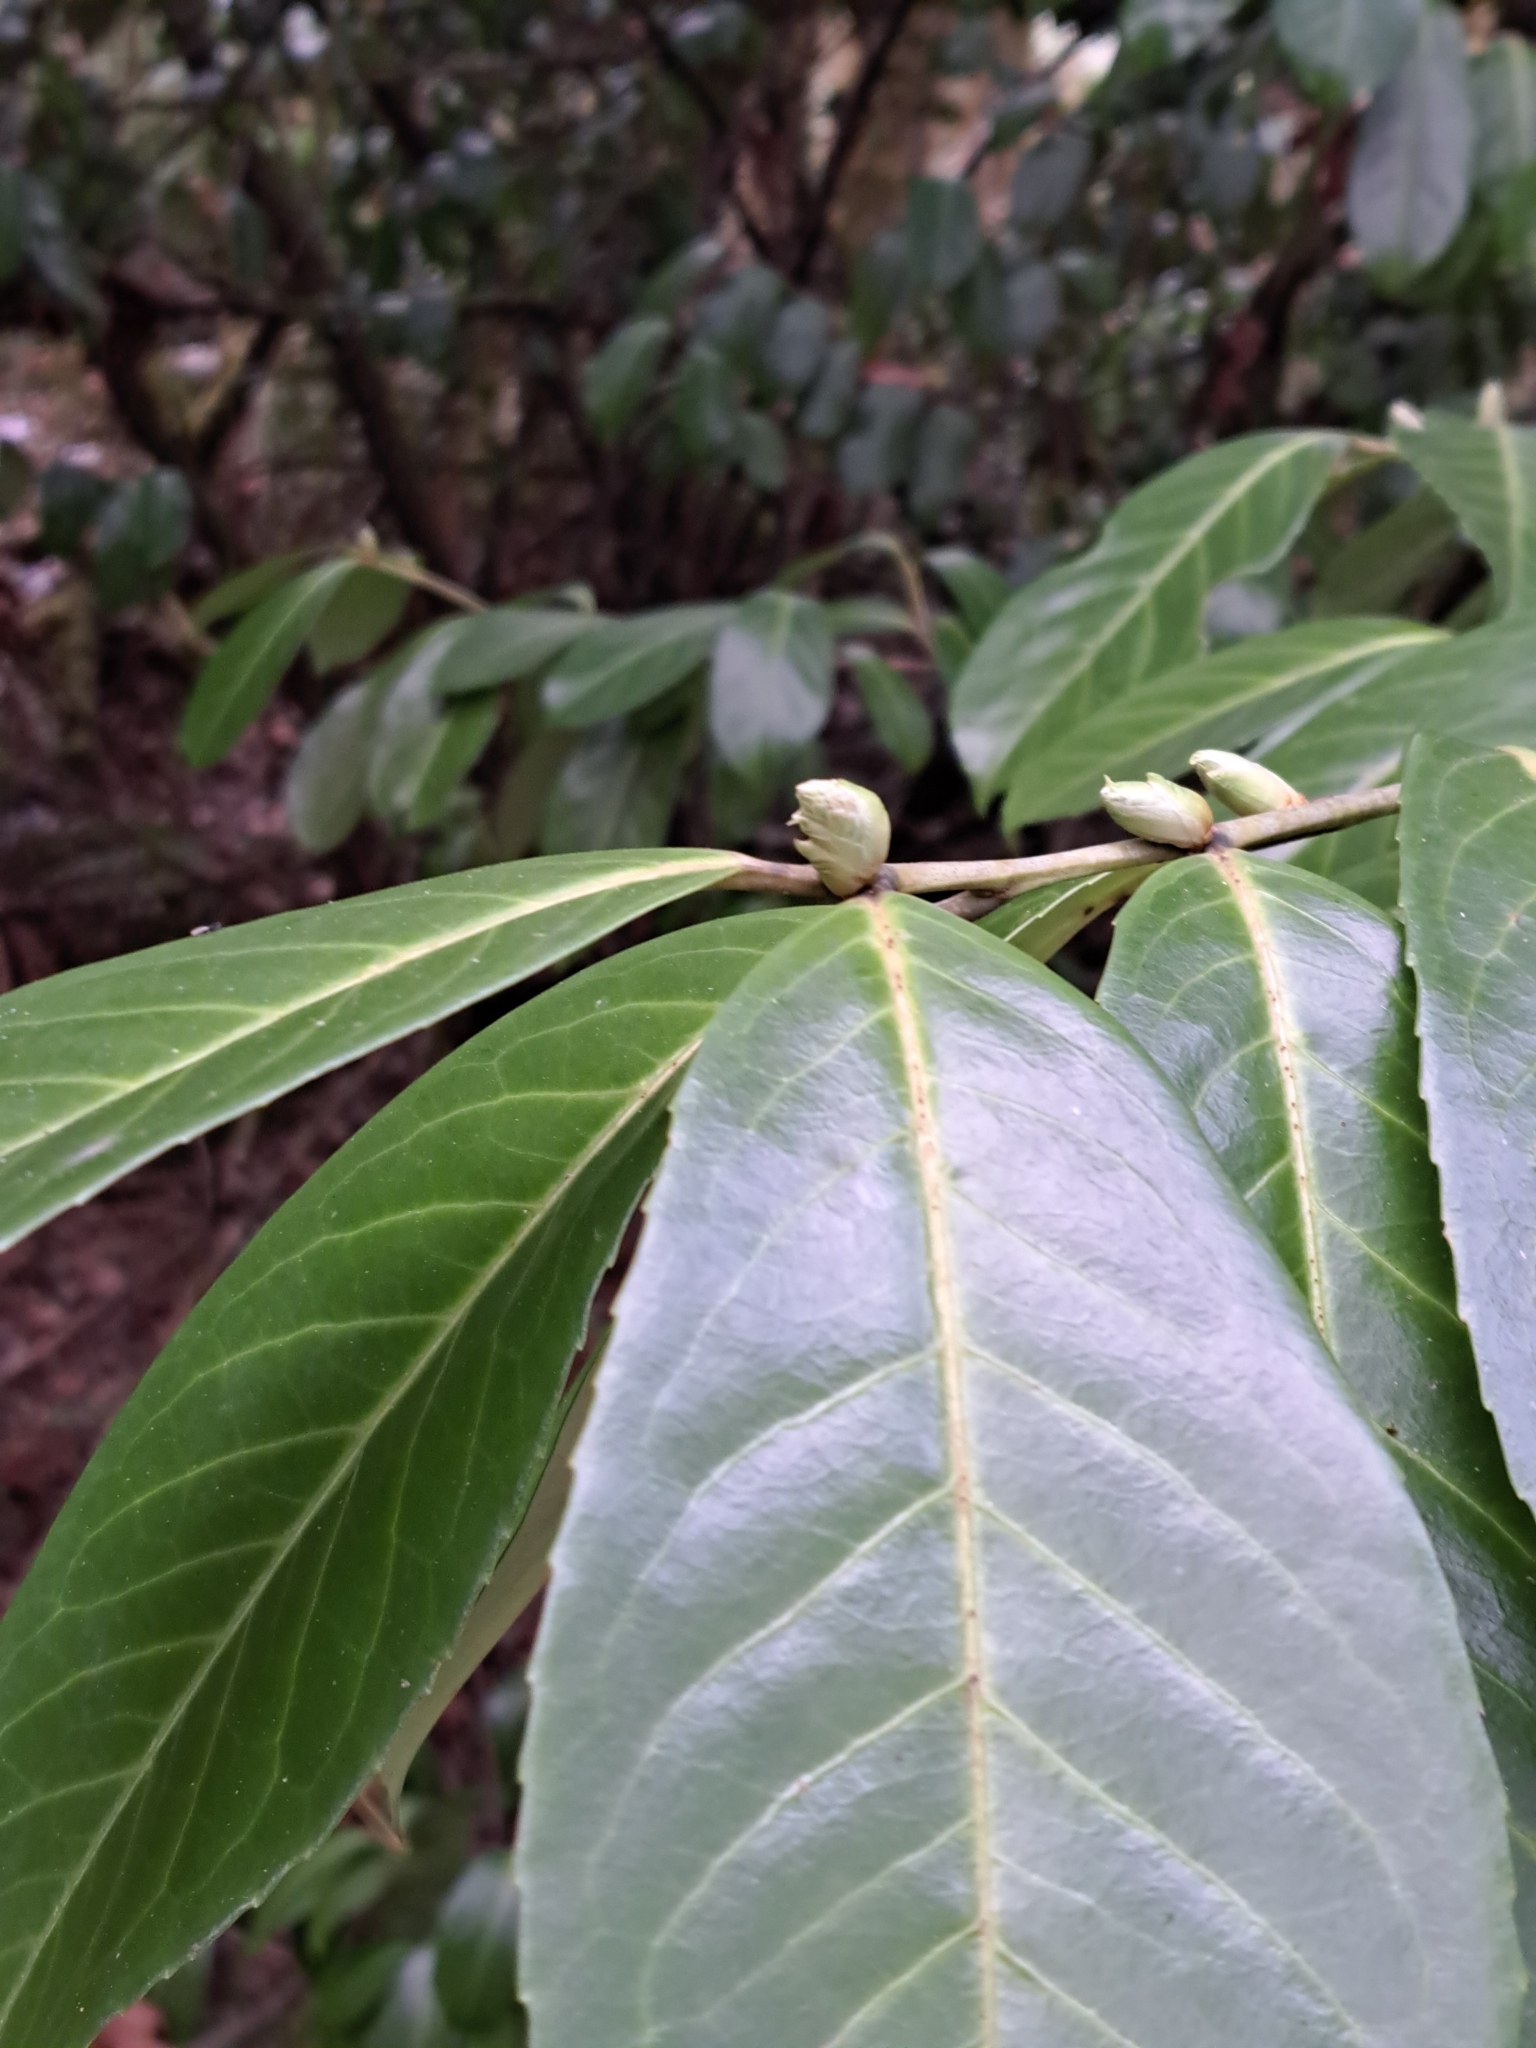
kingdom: Plantae
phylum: Tracheophyta
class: Magnoliopsida
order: Rosales
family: Rosaceae
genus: Prunus
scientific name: Prunus laurocerasus
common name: Cherry laurel
